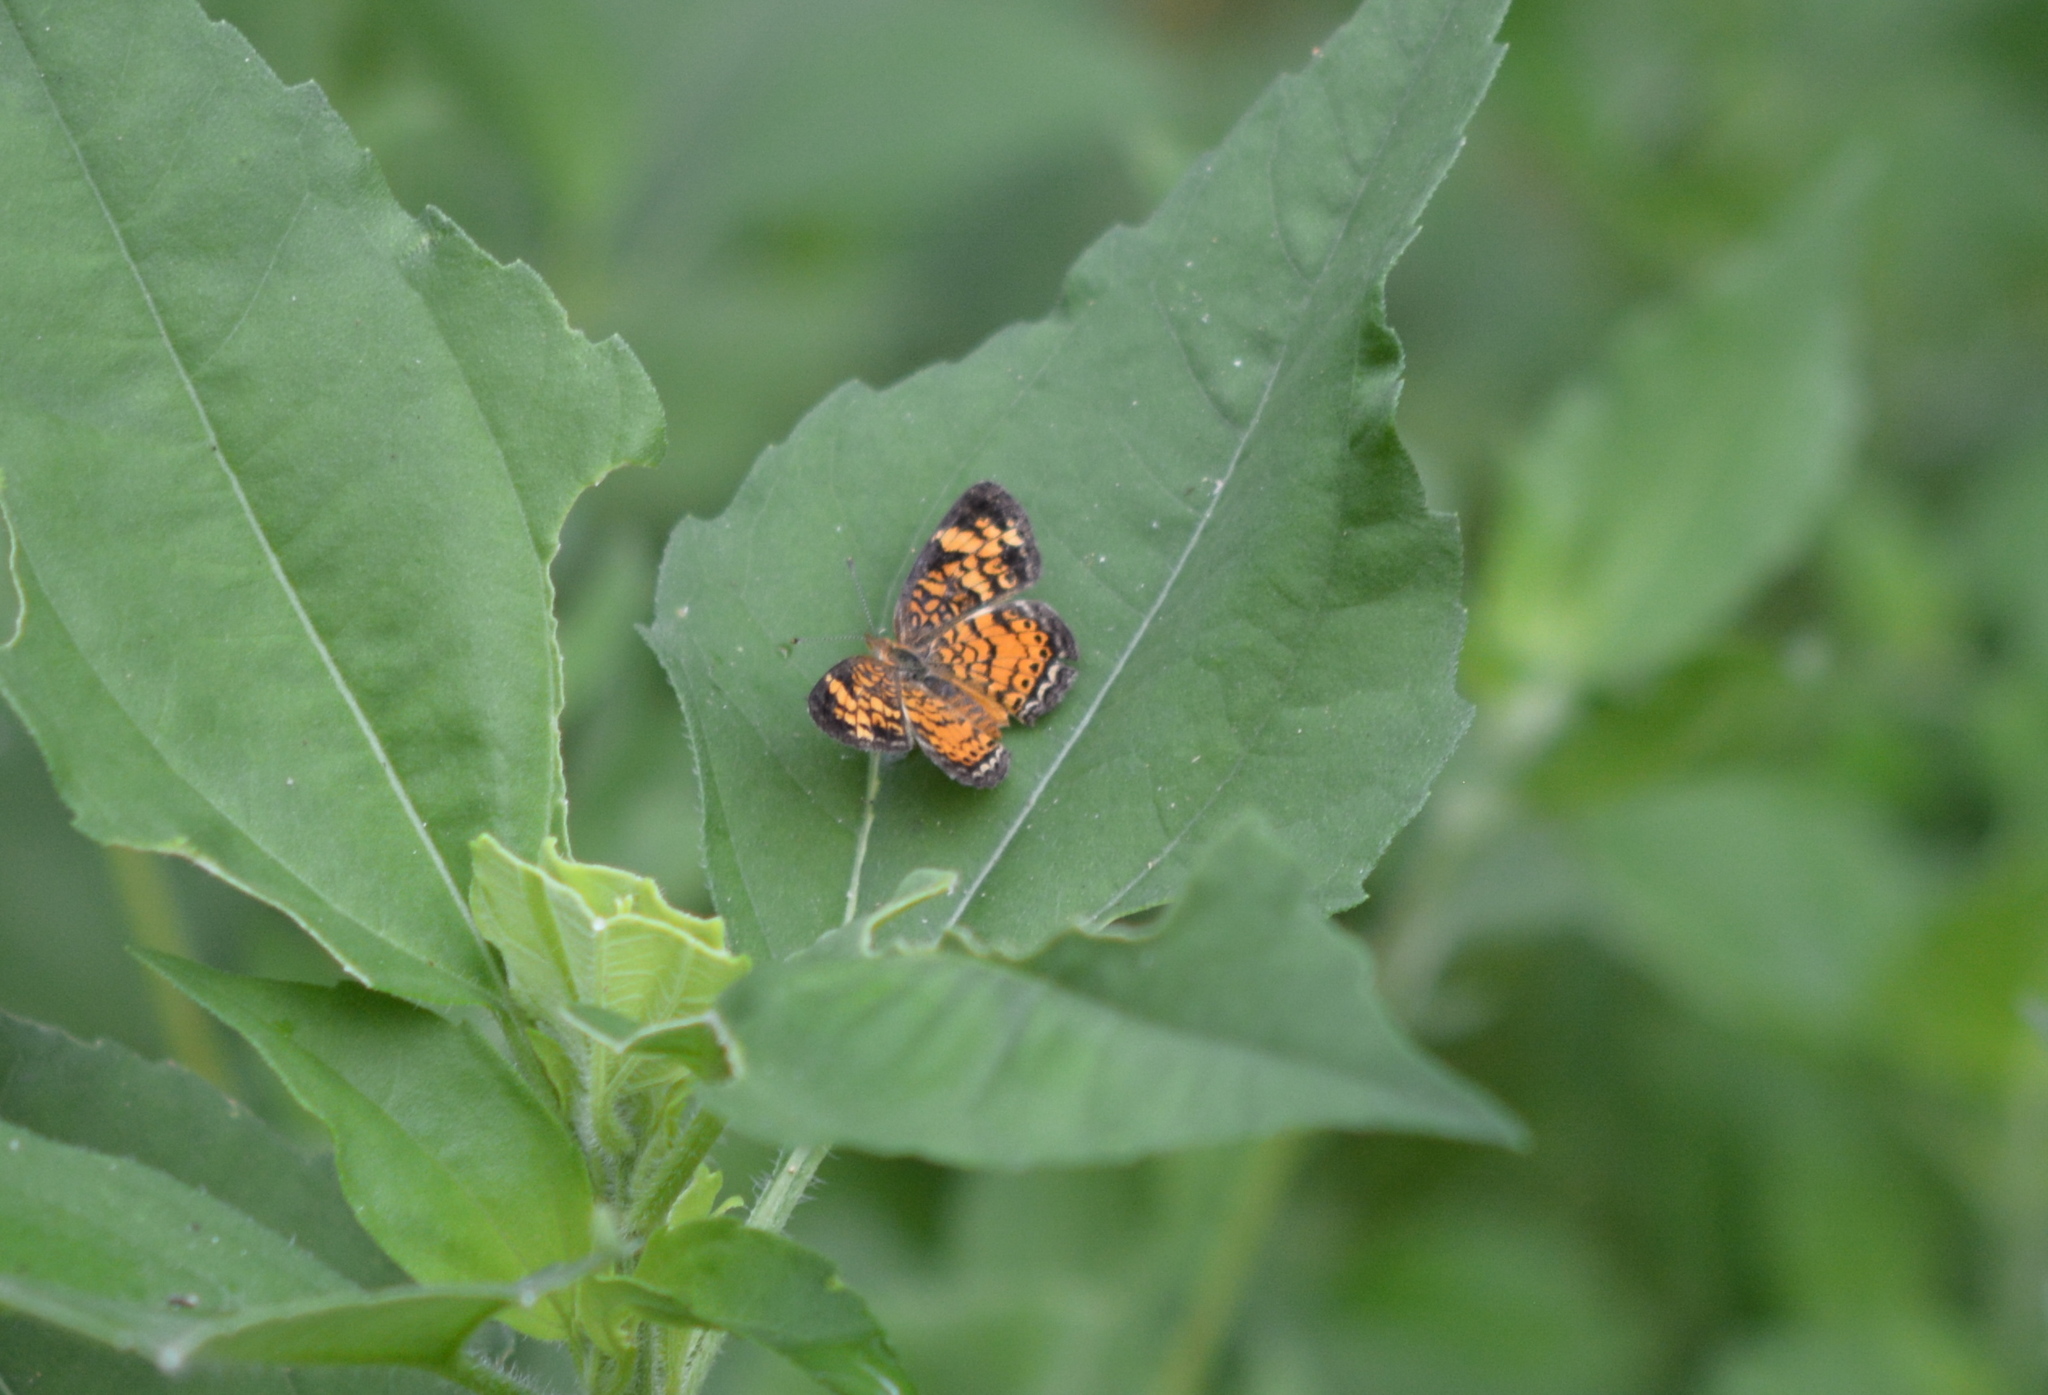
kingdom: Animalia
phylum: Arthropoda
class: Insecta
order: Lepidoptera
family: Nymphalidae
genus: Phyciodes
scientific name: Phyciodes tharos
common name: Pearl crescent
